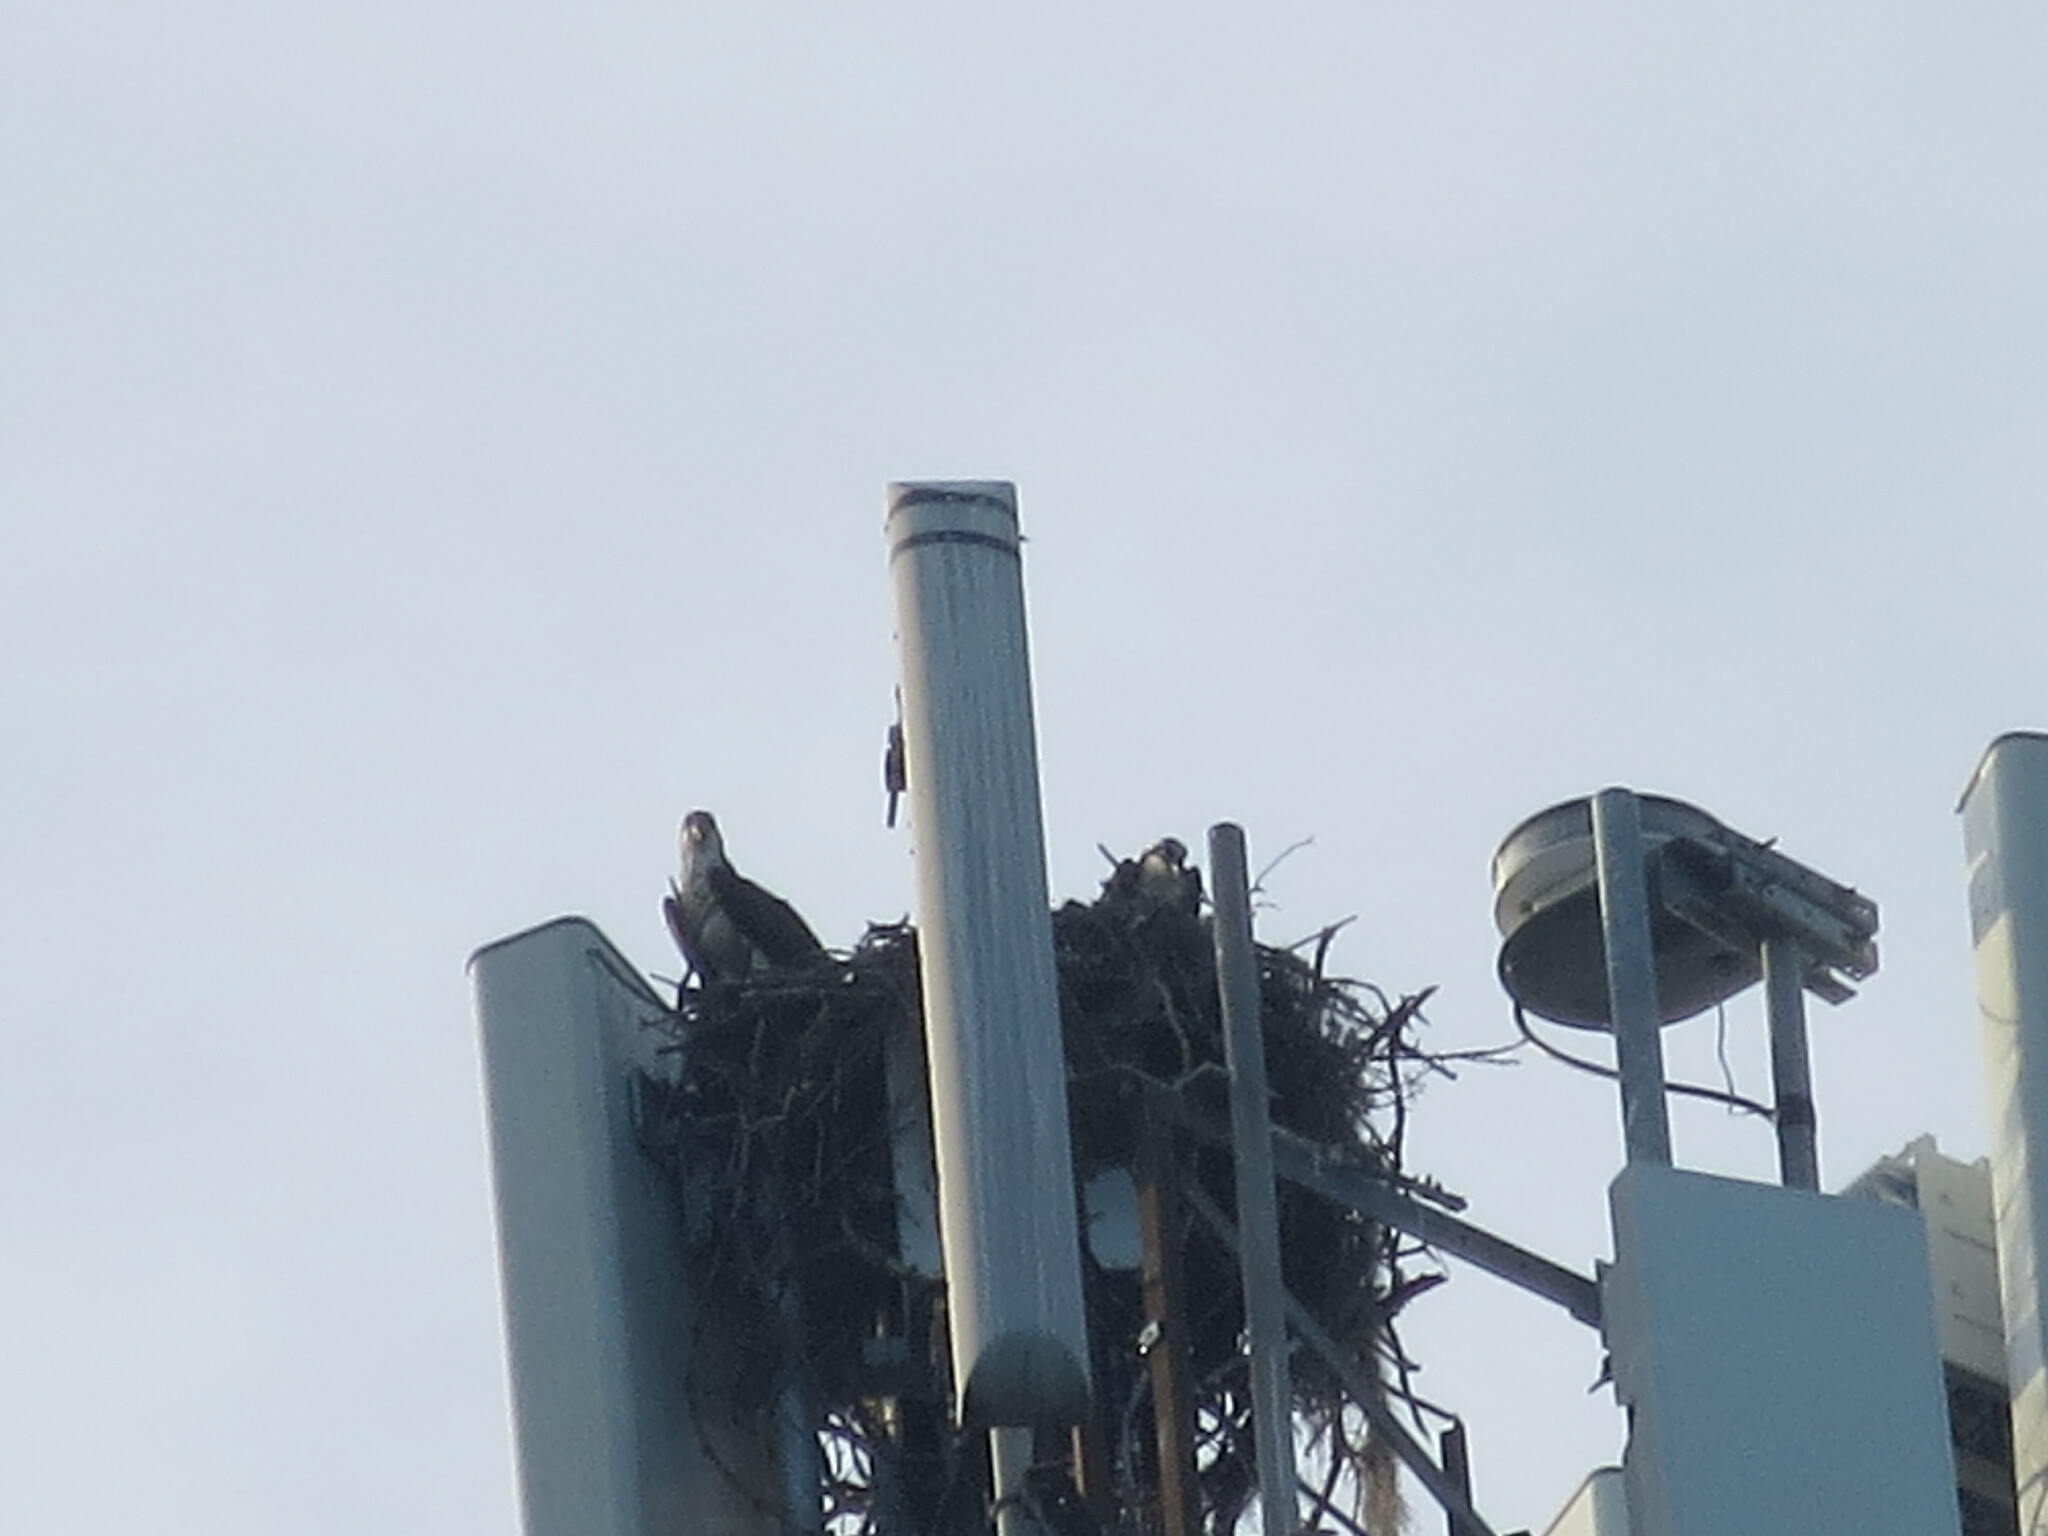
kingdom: Animalia
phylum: Chordata
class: Aves
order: Accipitriformes
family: Pandionidae
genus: Pandion
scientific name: Pandion haliaetus
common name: Osprey
